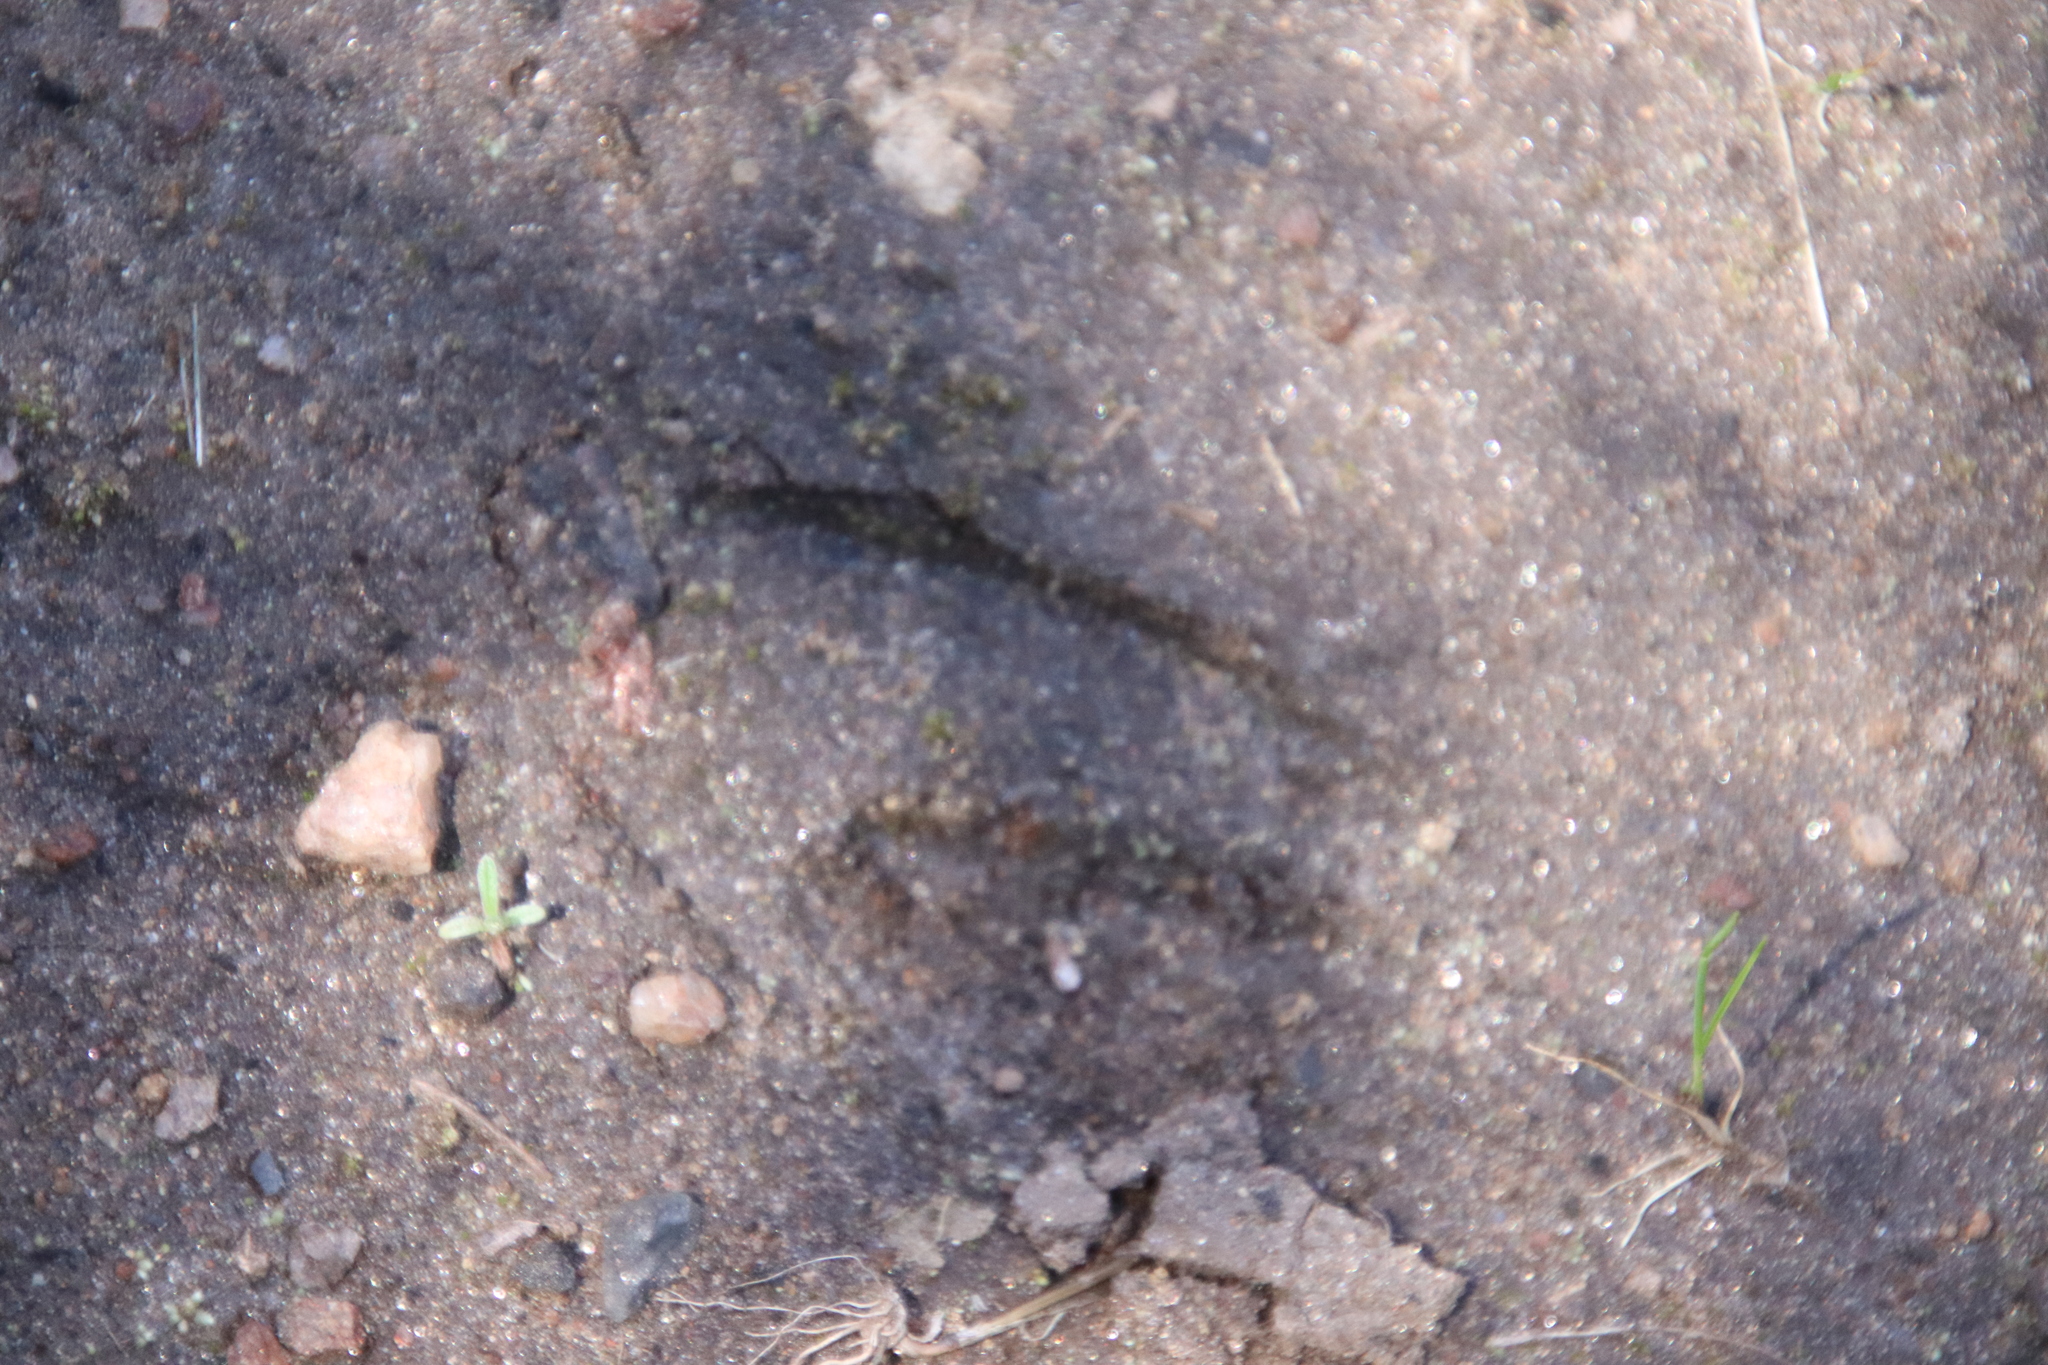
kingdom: Animalia
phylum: Chordata
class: Mammalia
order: Artiodactyla
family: Cervidae
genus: Odocoileus
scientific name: Odocoileus hemionus
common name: Mule deer
